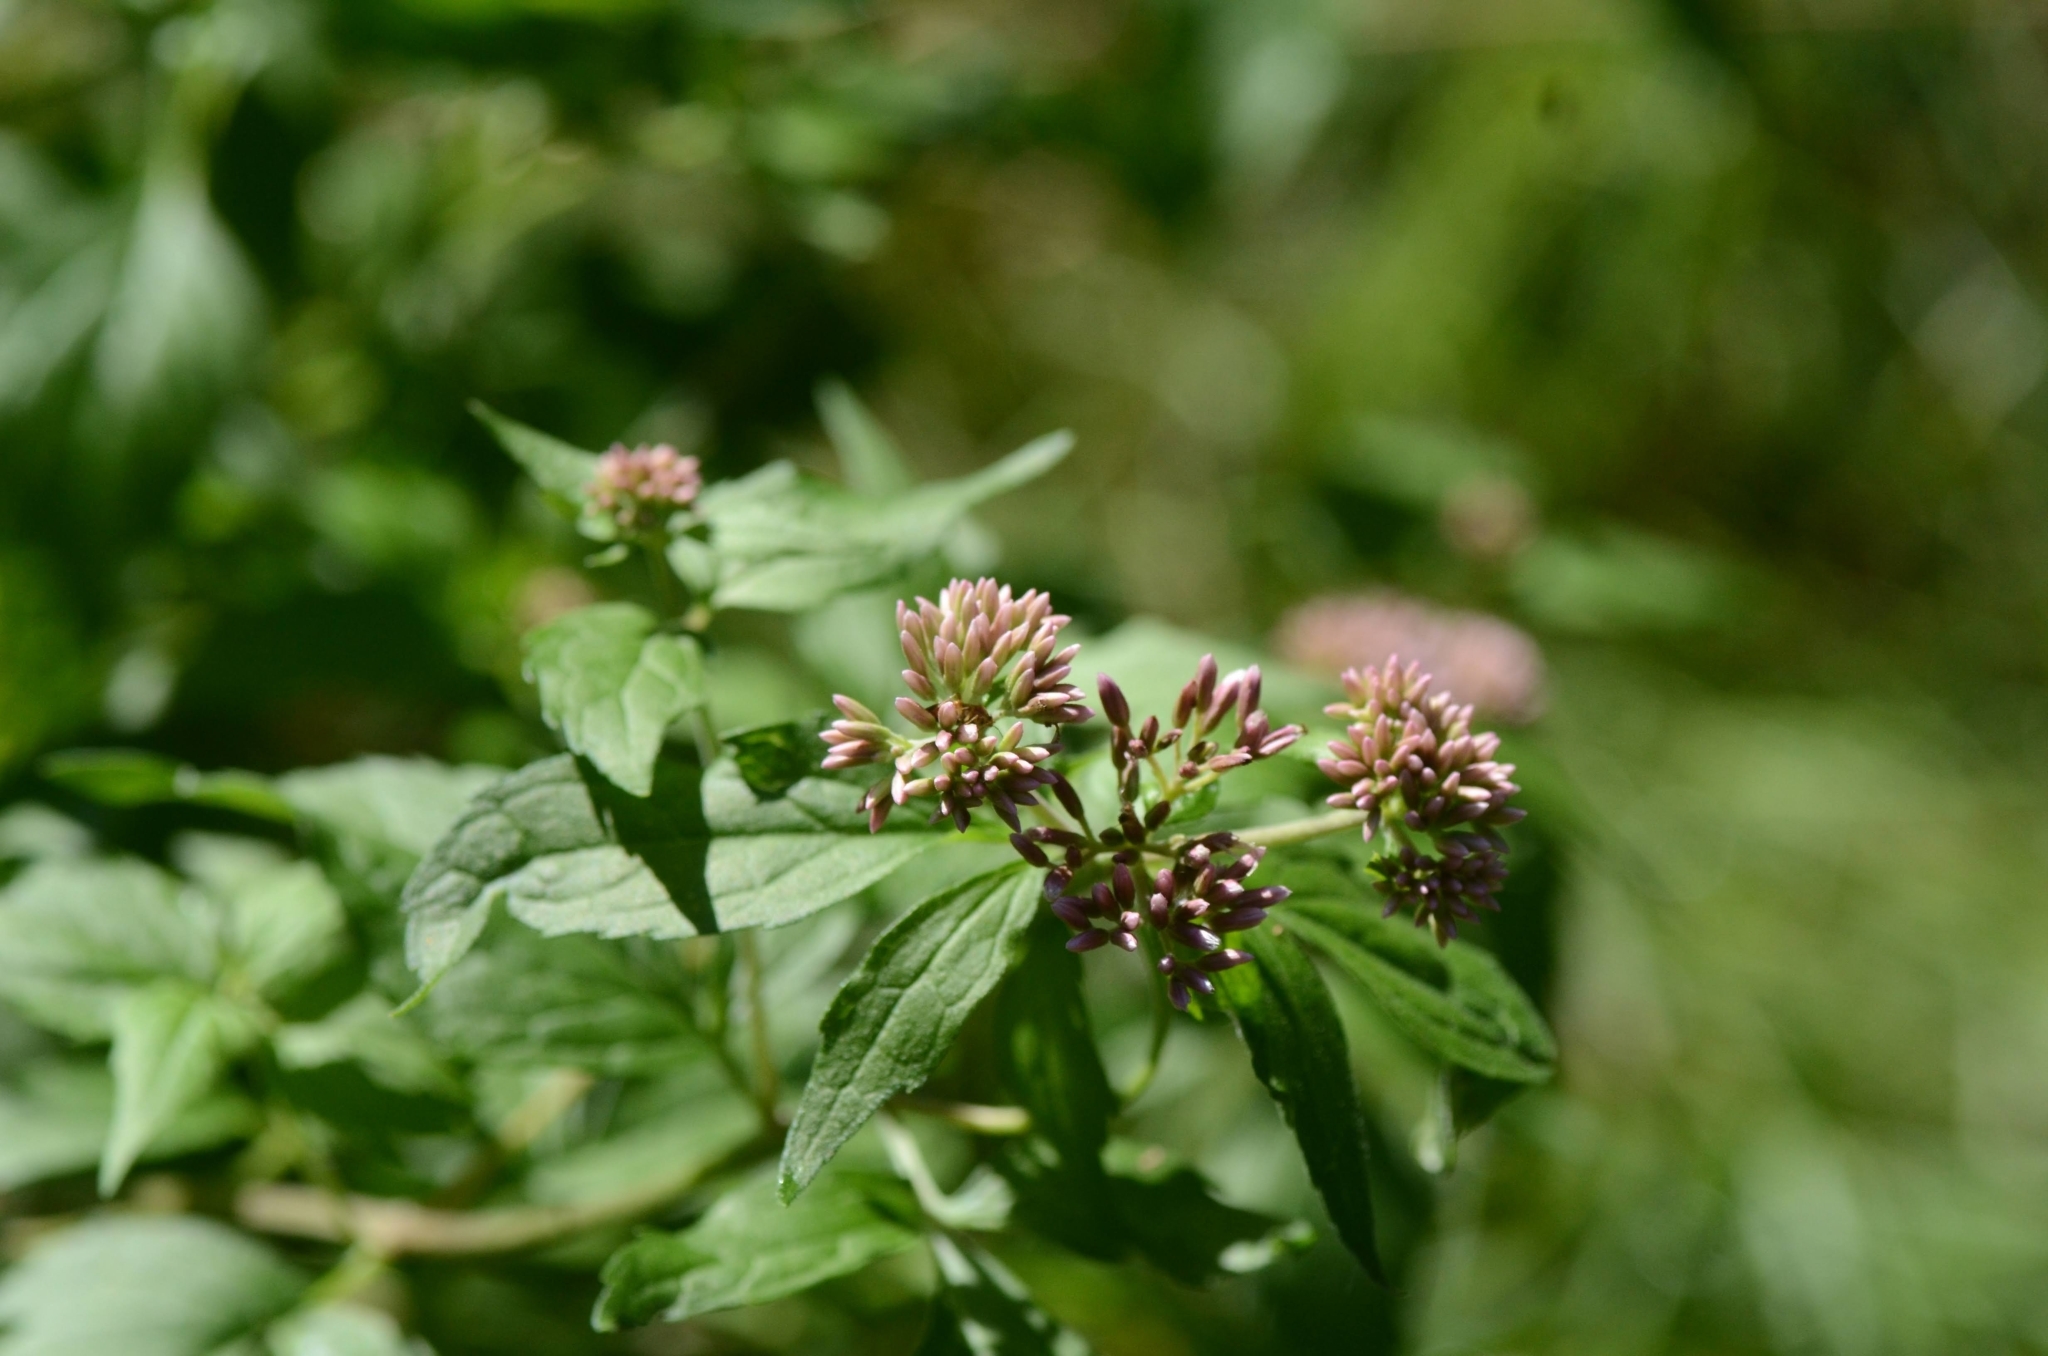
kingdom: Plantae
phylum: Tracheophyta
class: Magnoliopsida
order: Asterales
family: Asteraceae
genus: Eupatorium
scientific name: Eupatorium cannabinum
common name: Hemp-agrimony
